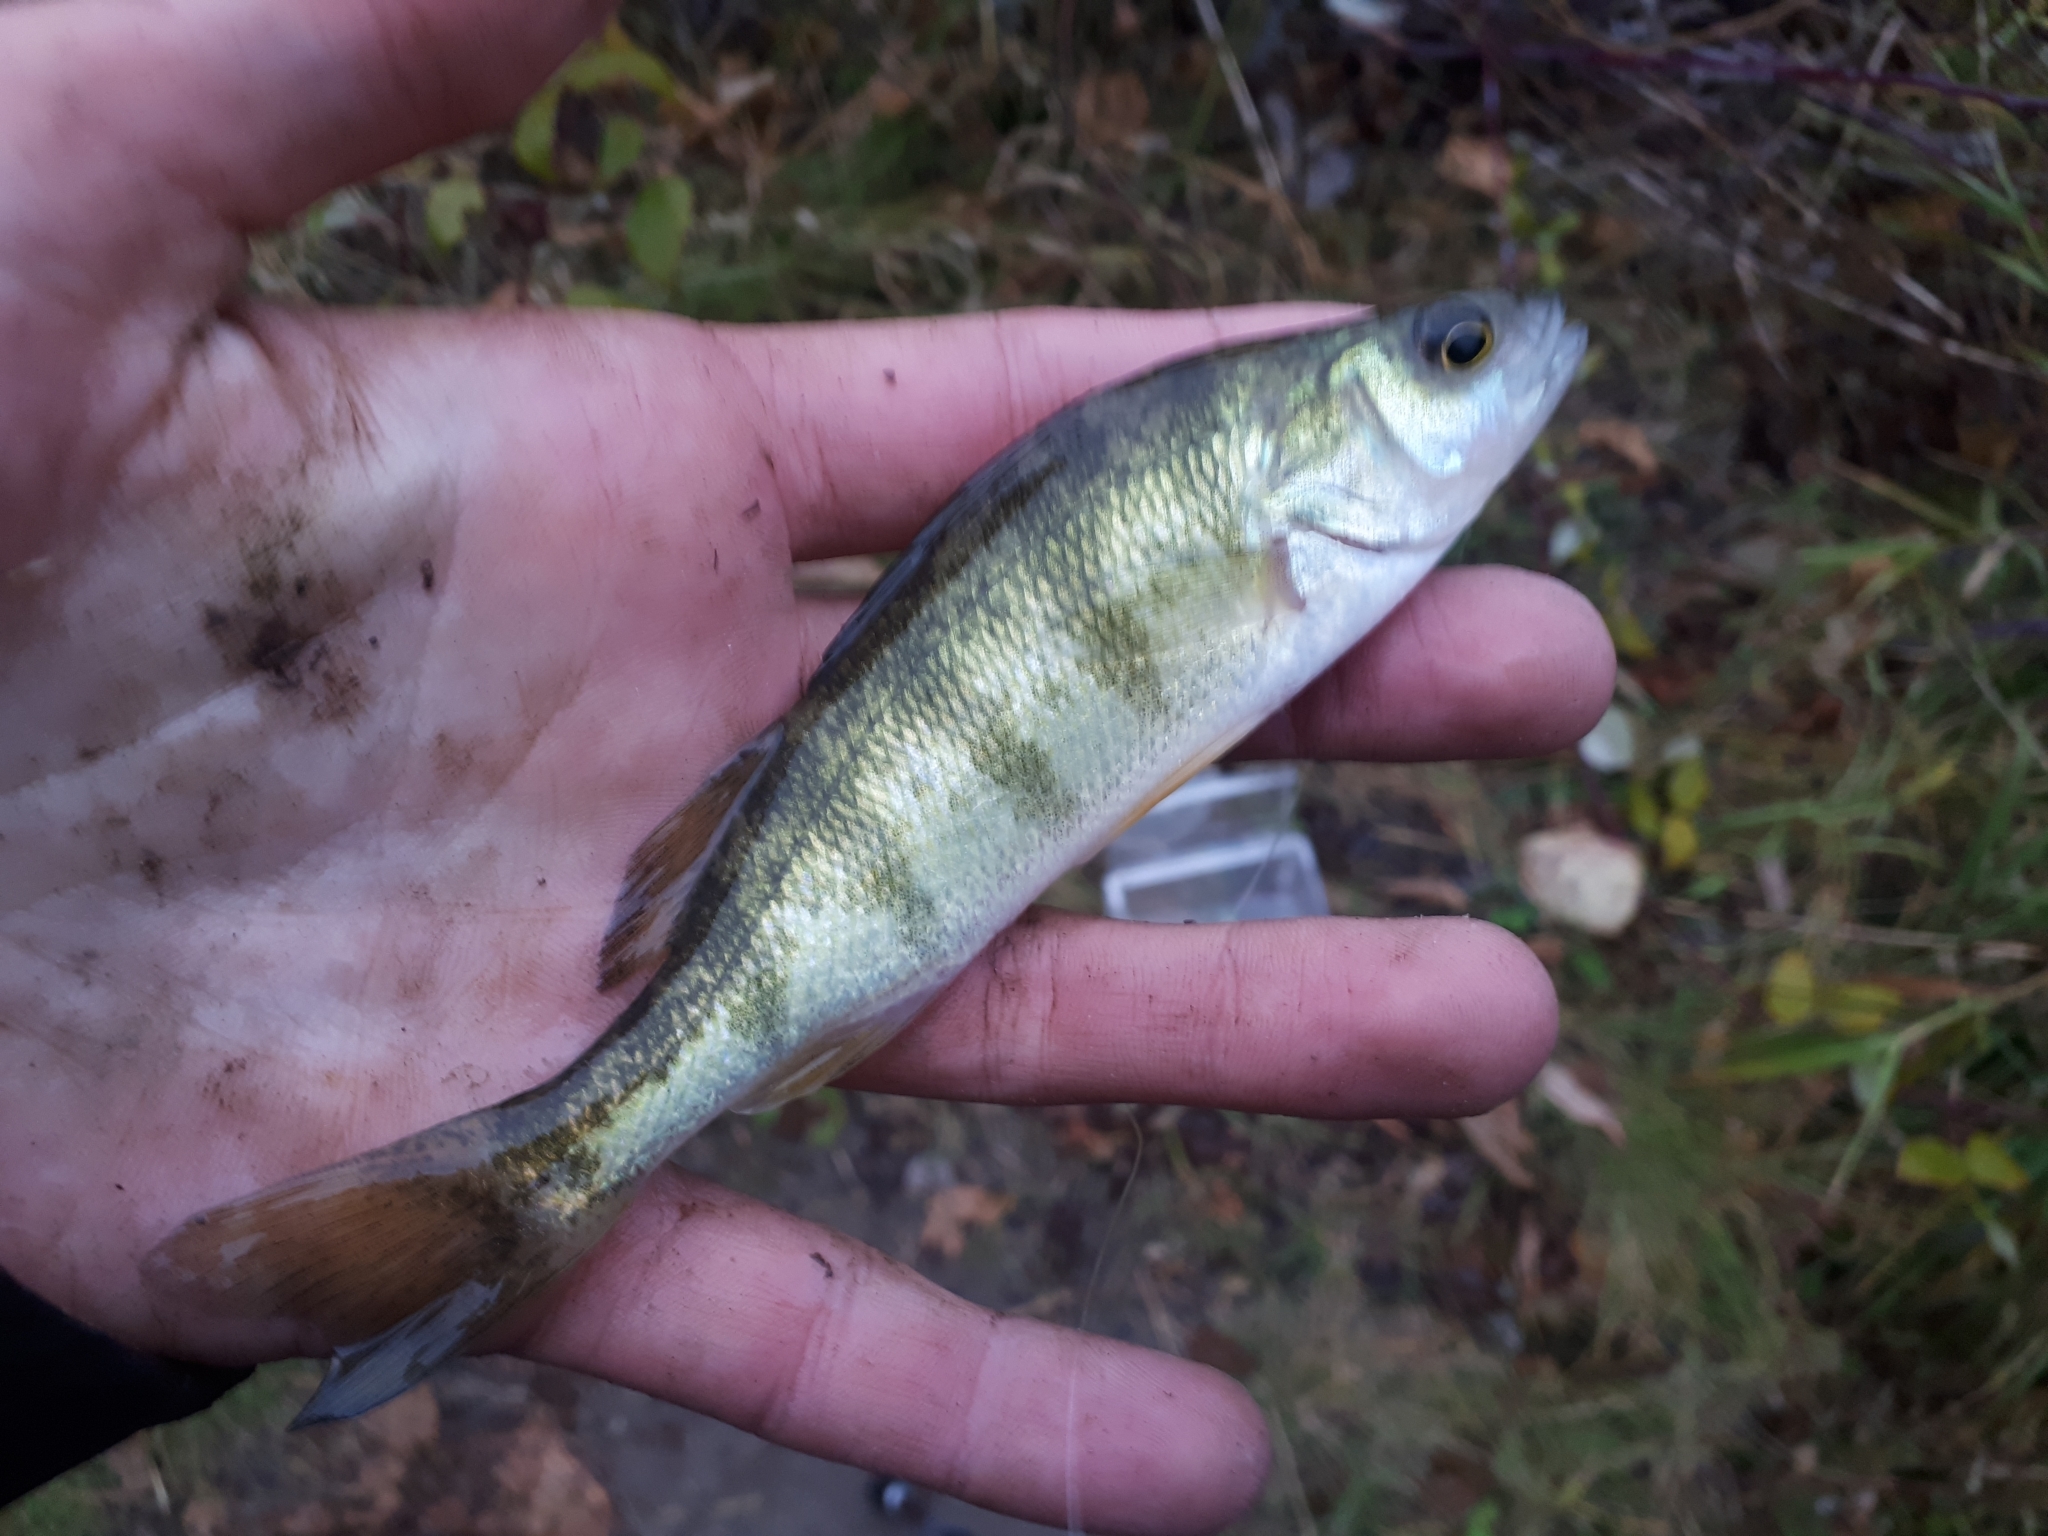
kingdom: Animalia
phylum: Chordata
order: Perciformes
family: Percidae
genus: Perca
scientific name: Perca flavescens
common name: Yellow perch
